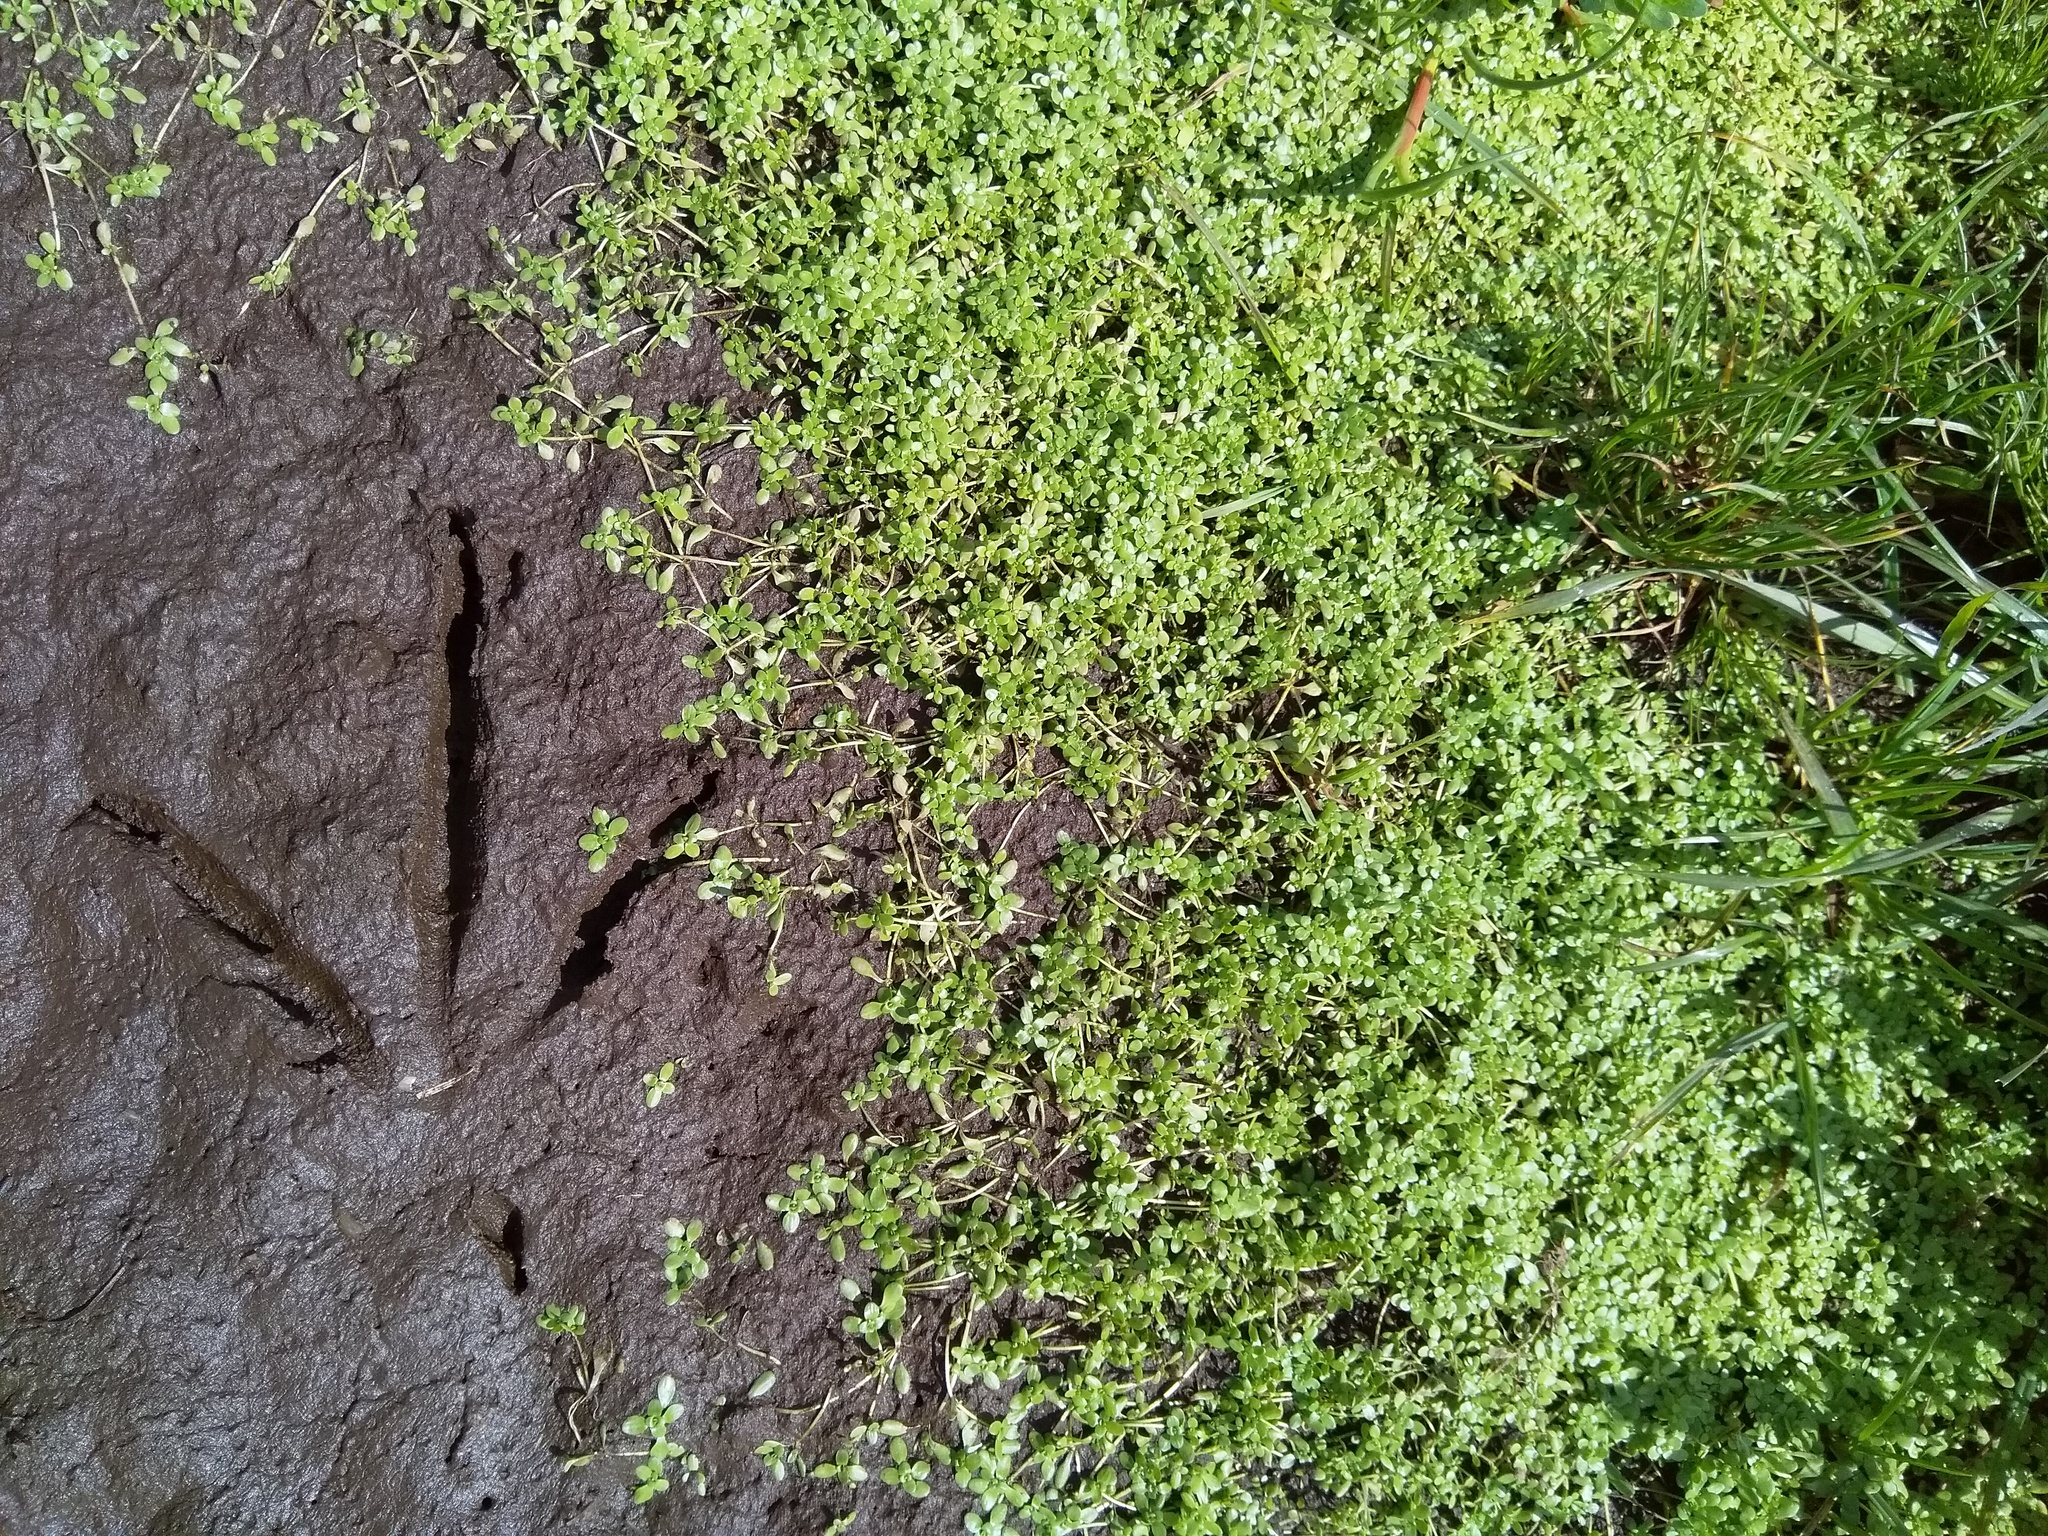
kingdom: Plantae
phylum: Tracheophyta
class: Magnoliopsida
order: Lamiales
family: Plantaginaceae
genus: Callitriche
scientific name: Callitriche stagnalis
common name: Common water-starwort
